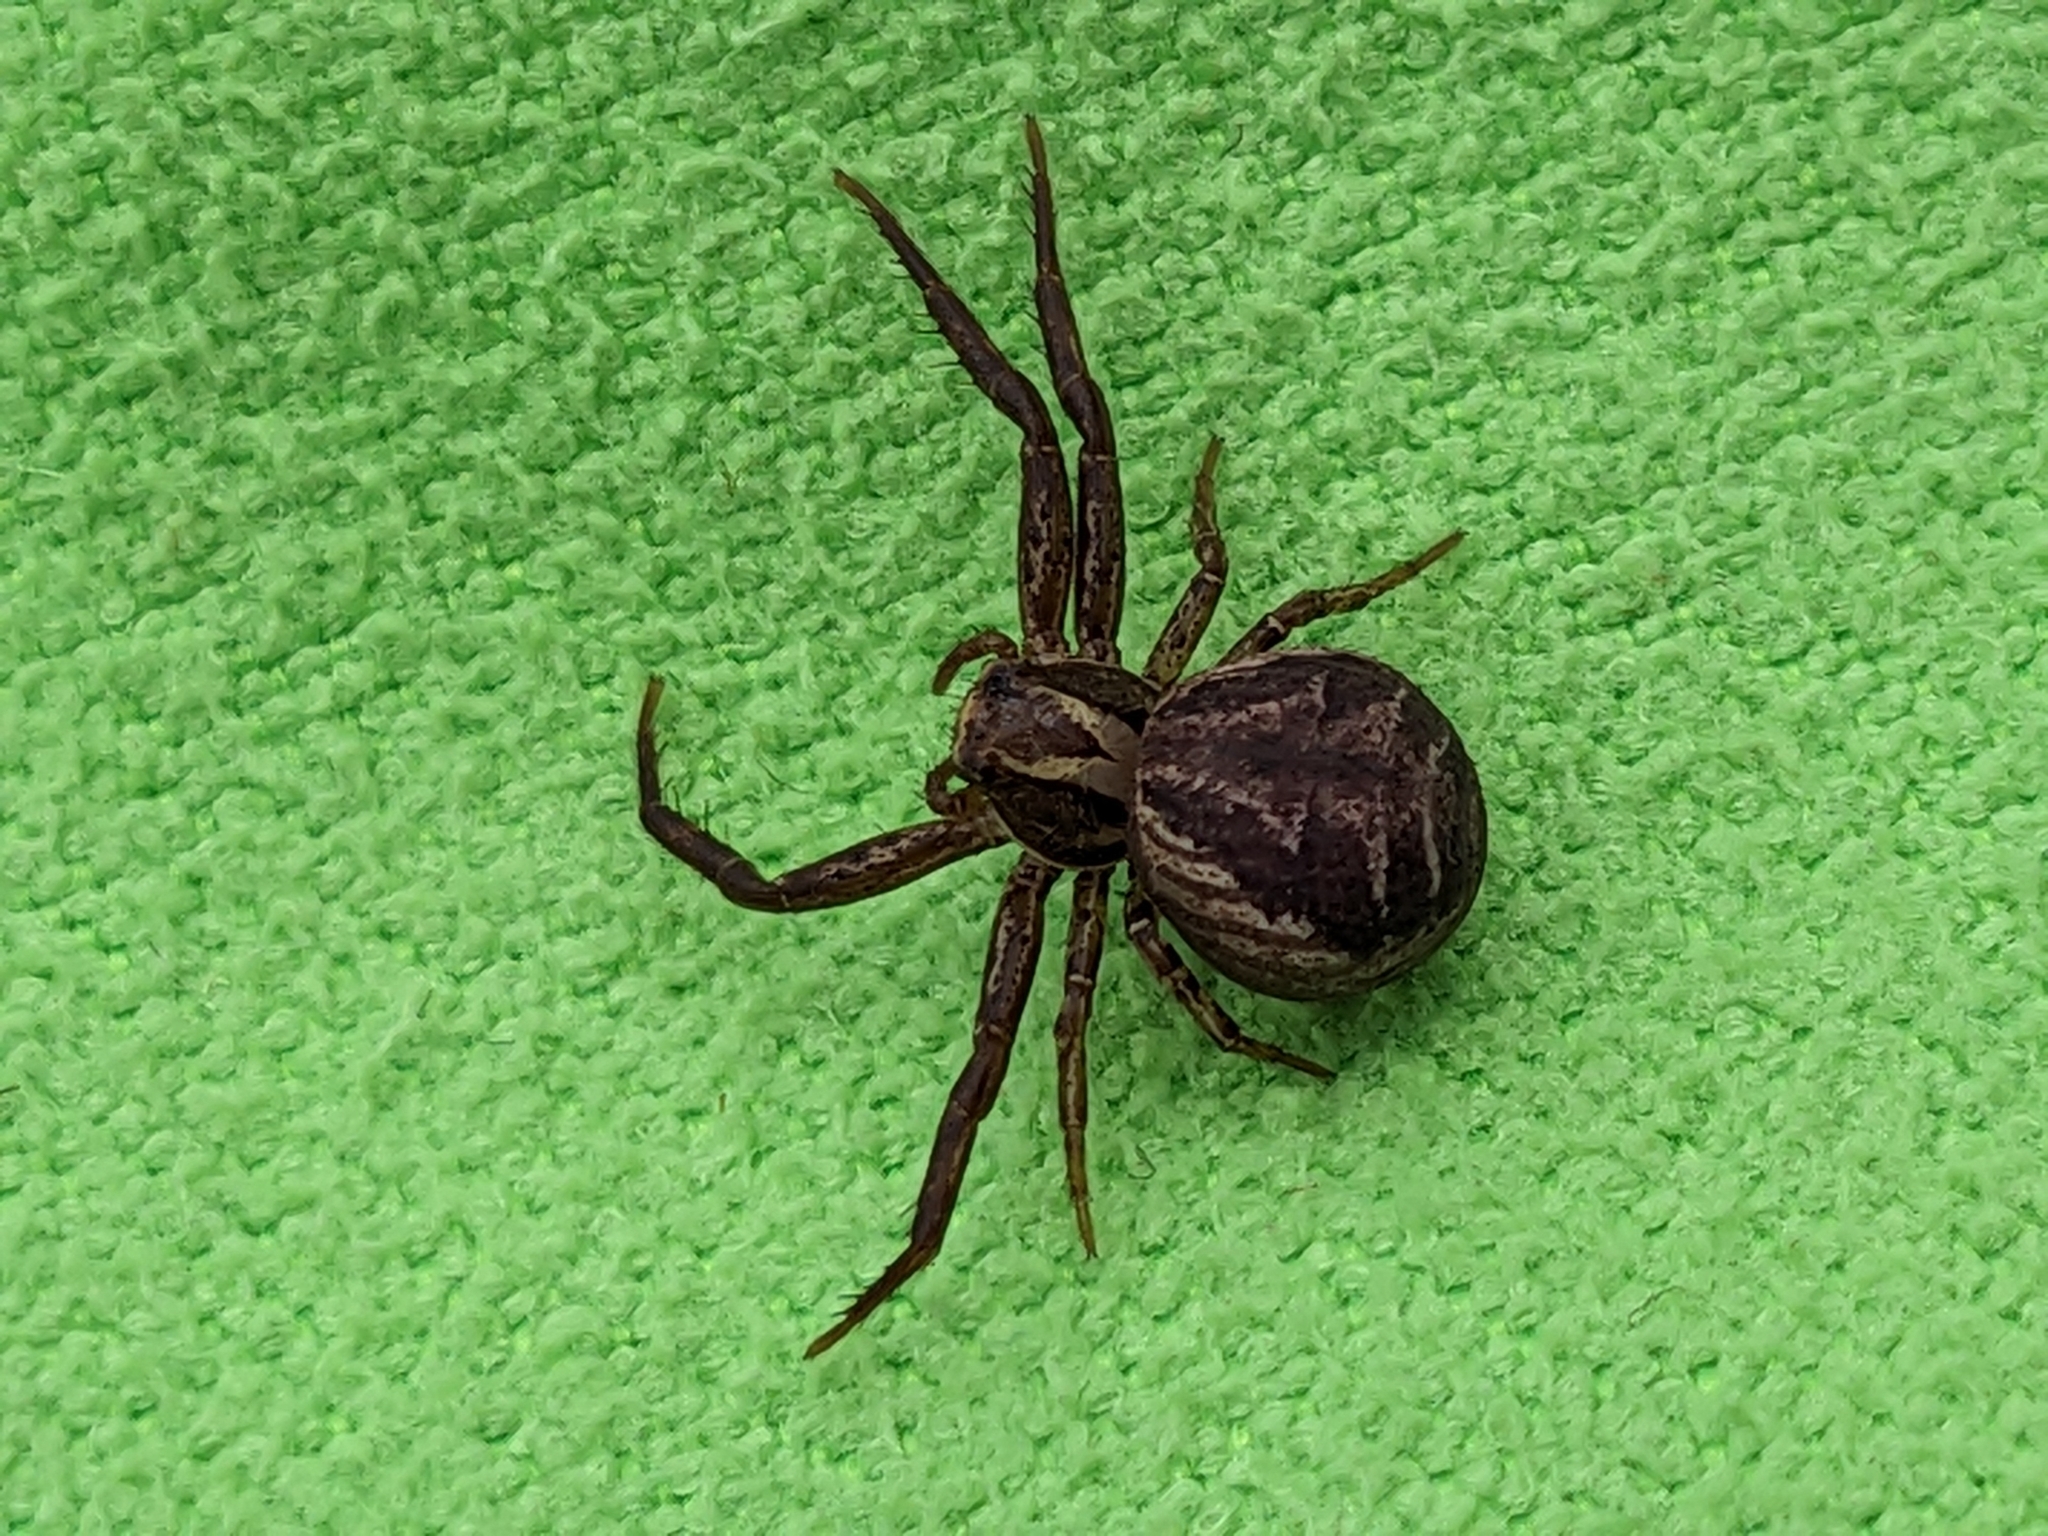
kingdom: Animalia
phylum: Arthropoda
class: Arachnida
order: Araneae
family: Thomisidae
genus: Xysticus
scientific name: Xysticus
